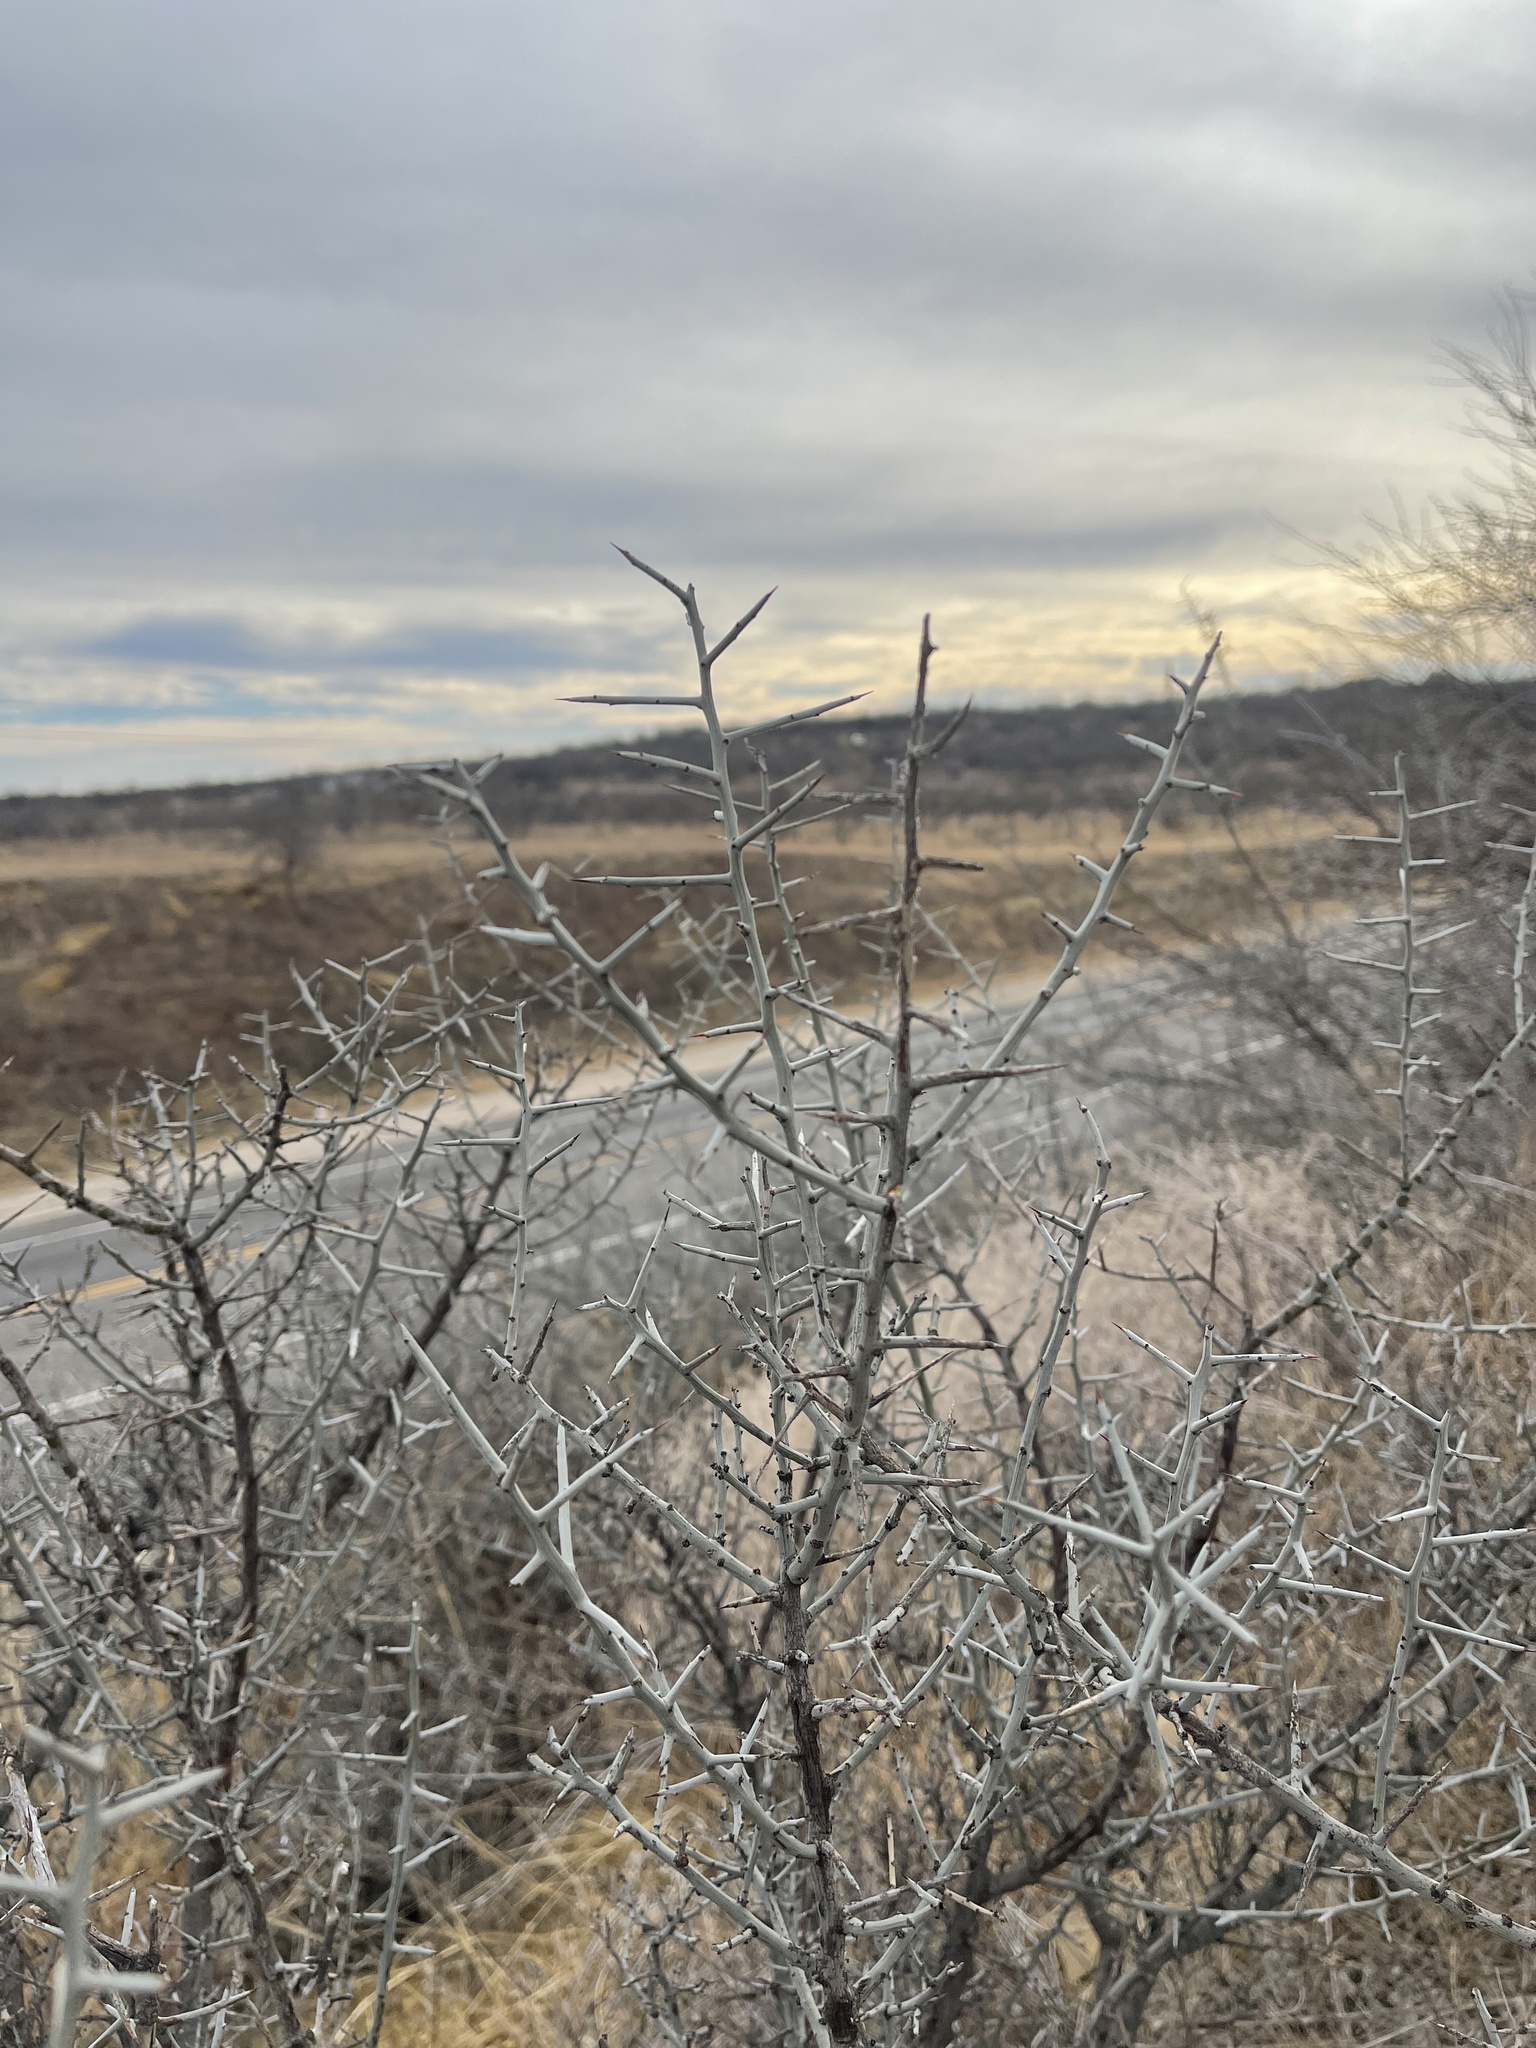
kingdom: Plantae
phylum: Tracheophyta
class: Magnoliopsida
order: Rosales
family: Rhamnaceae
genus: Sarcomphalus
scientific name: Sarcomphalus obtusifolius
